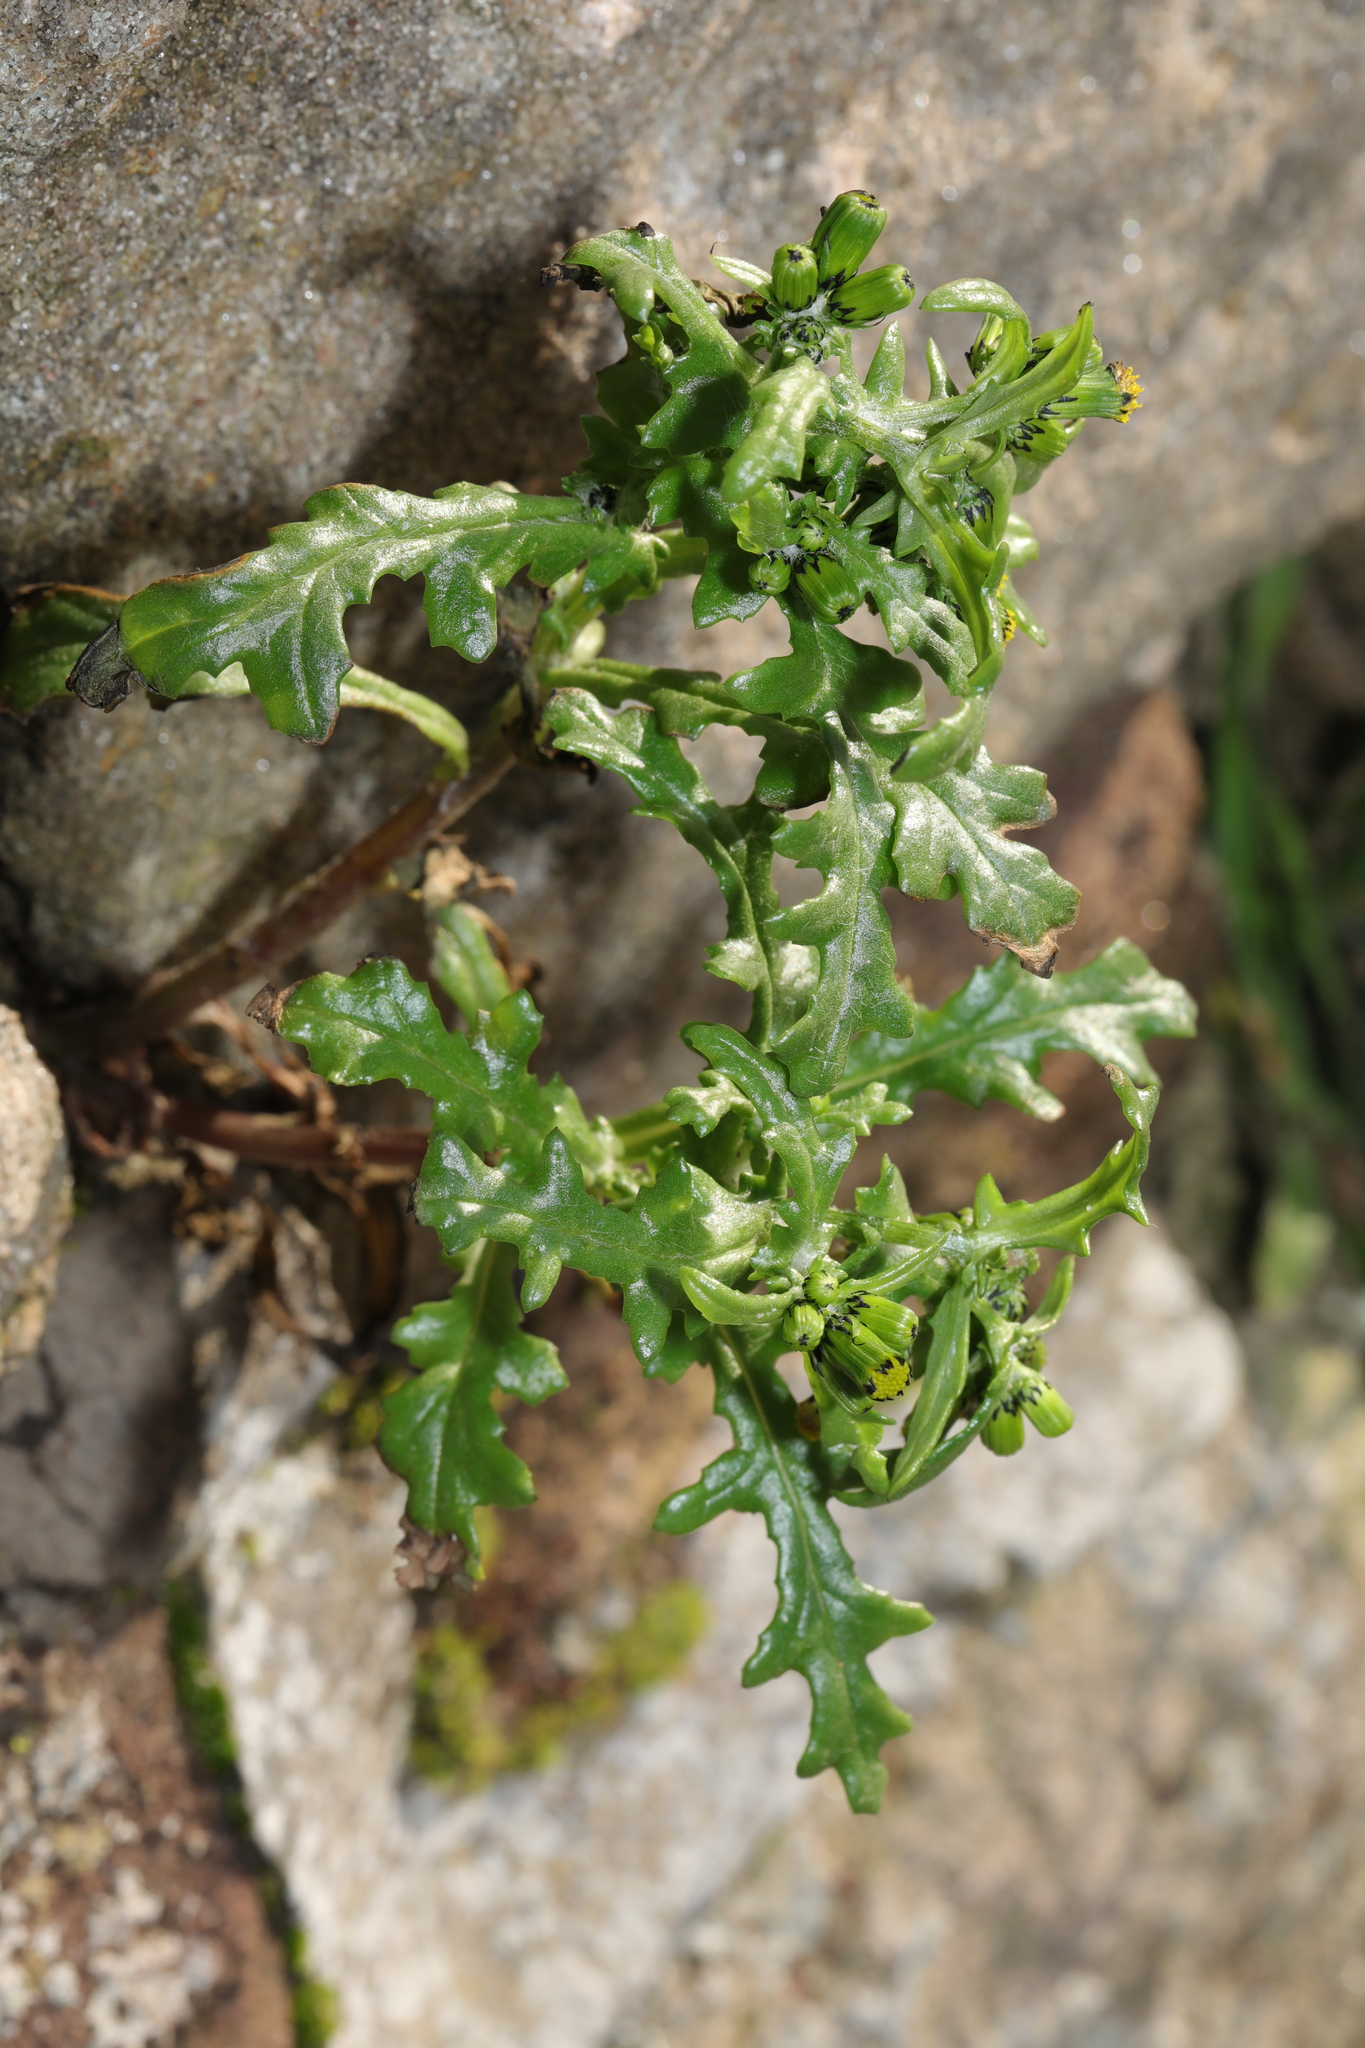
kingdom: Plantae
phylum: Tracheophyta
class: Magnoliopsida
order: Asterales
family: Asteraceae
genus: Senecio
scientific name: Senecio vulgaris
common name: Old-man-in-the-spring
